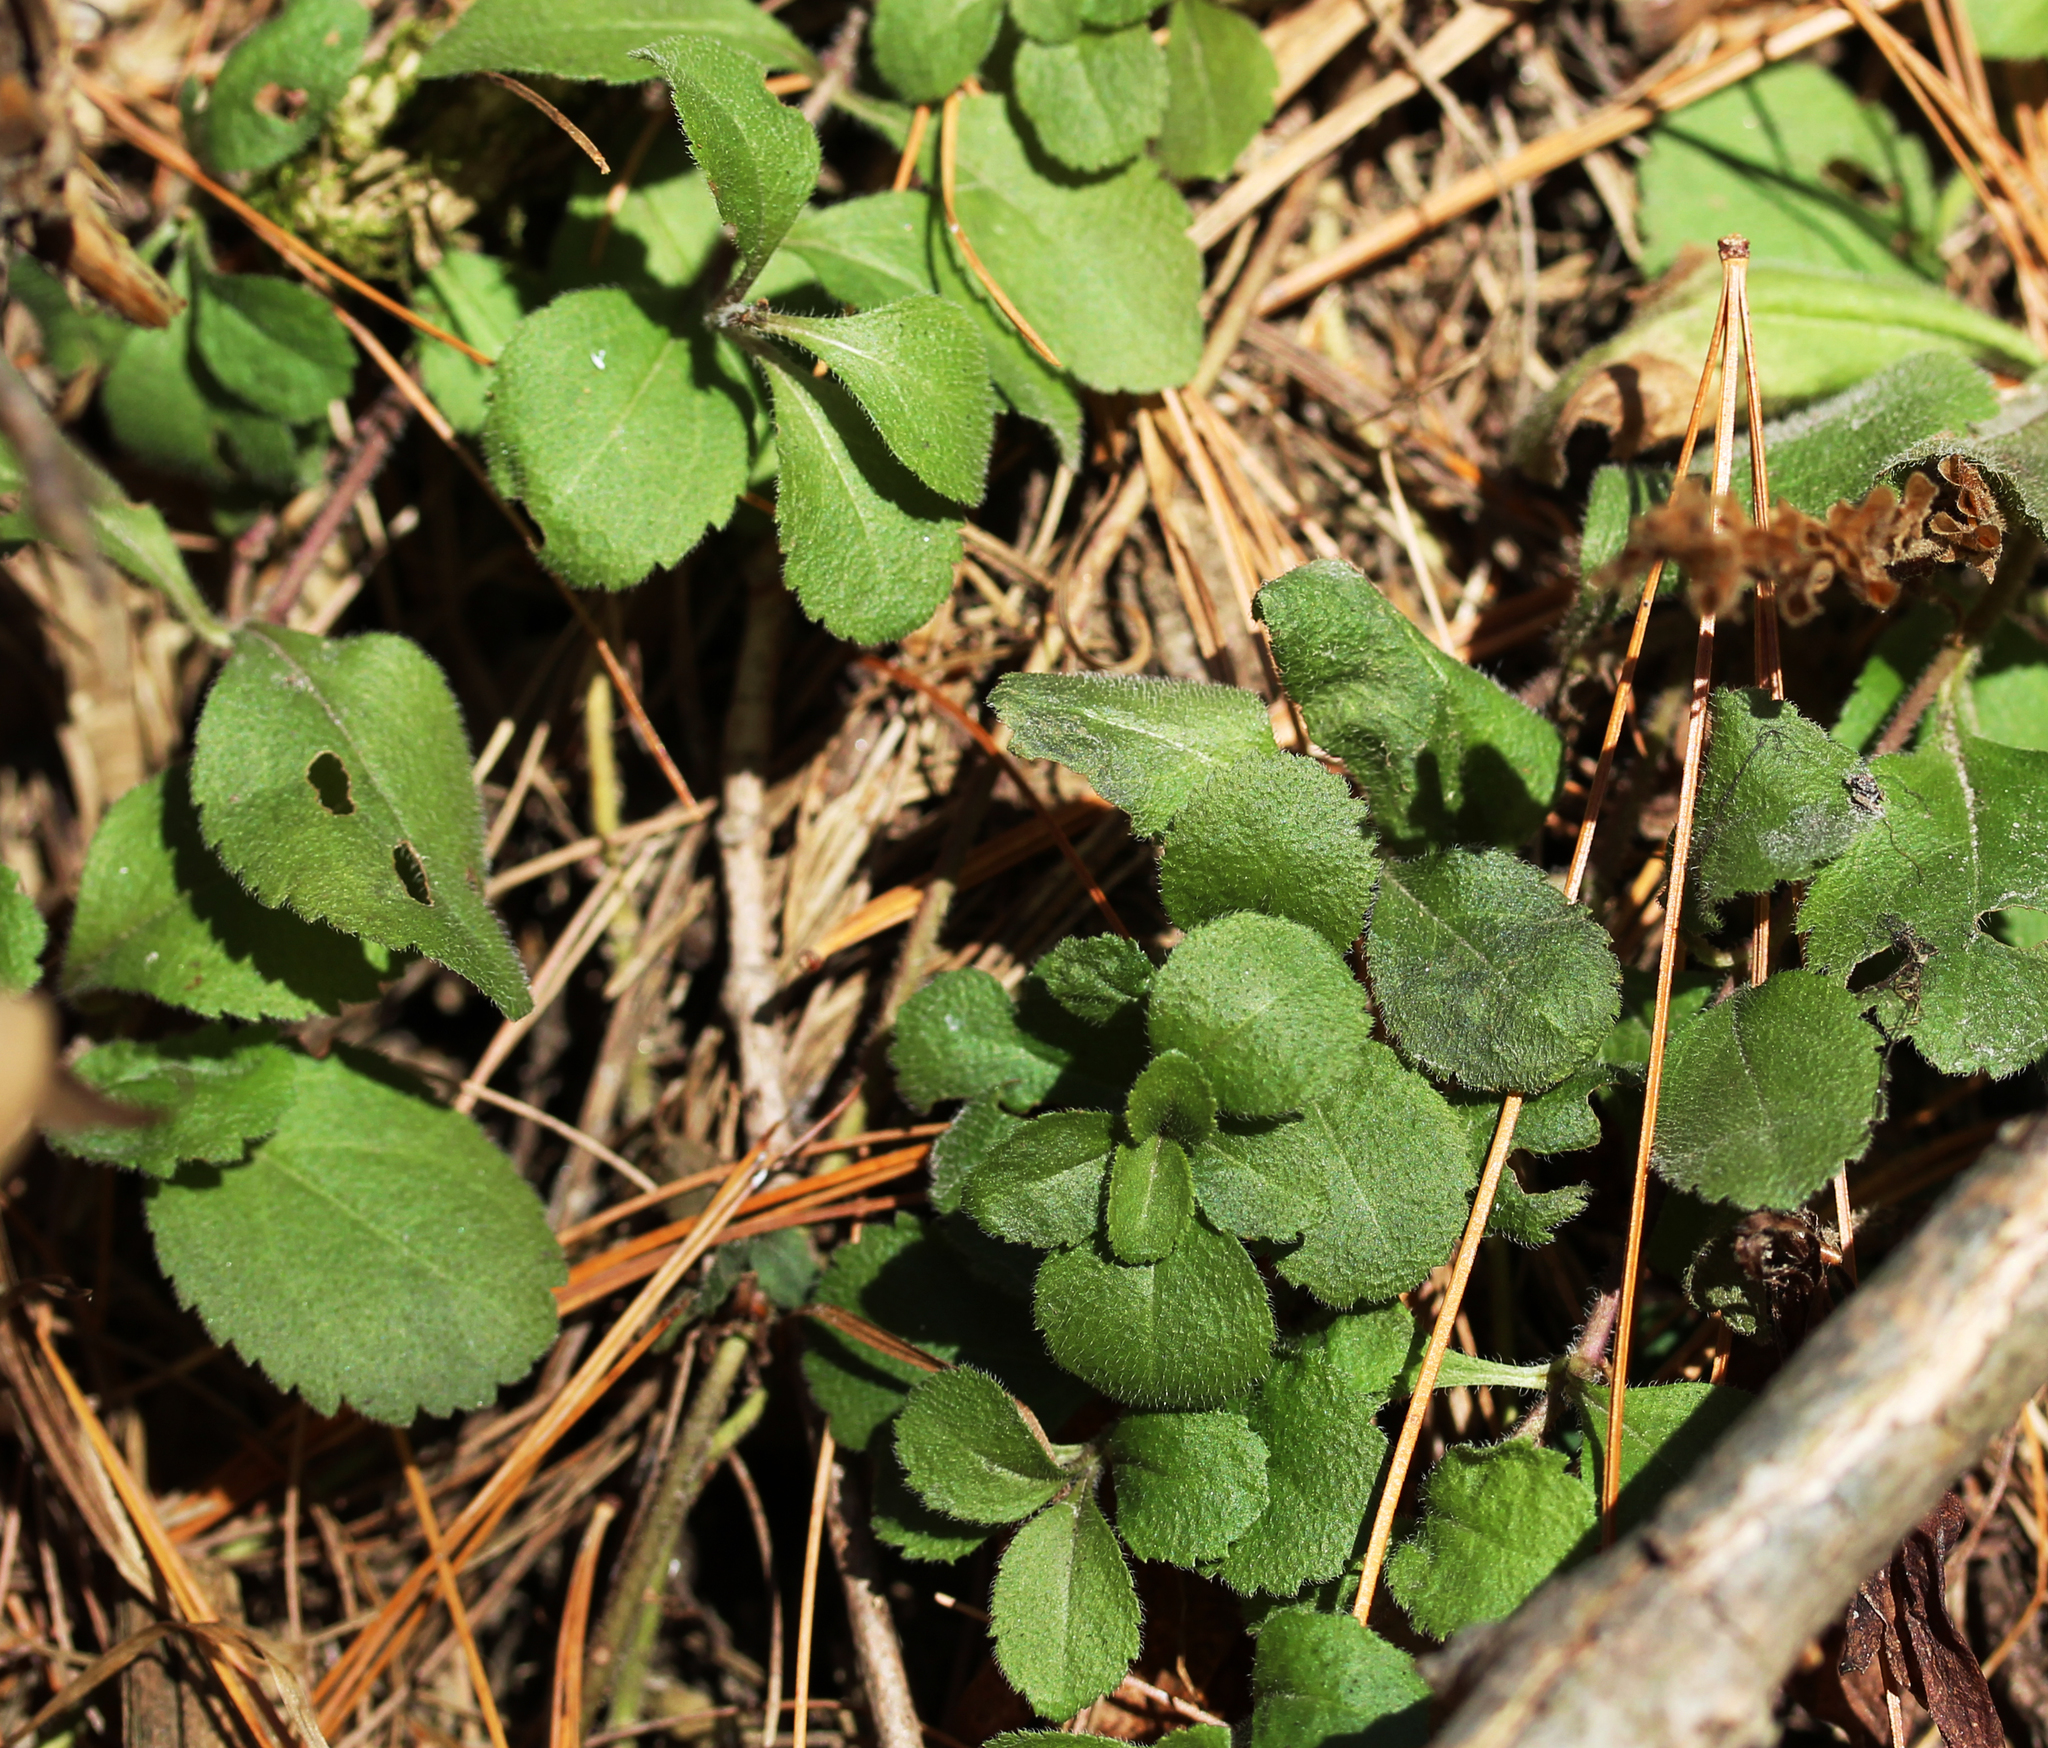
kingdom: Plantae
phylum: Tracheophyta
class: Magnoliopsida
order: Lamiales
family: Plantaginaceae
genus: Veronica
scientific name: Veronica officinalis
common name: Common speedwell
